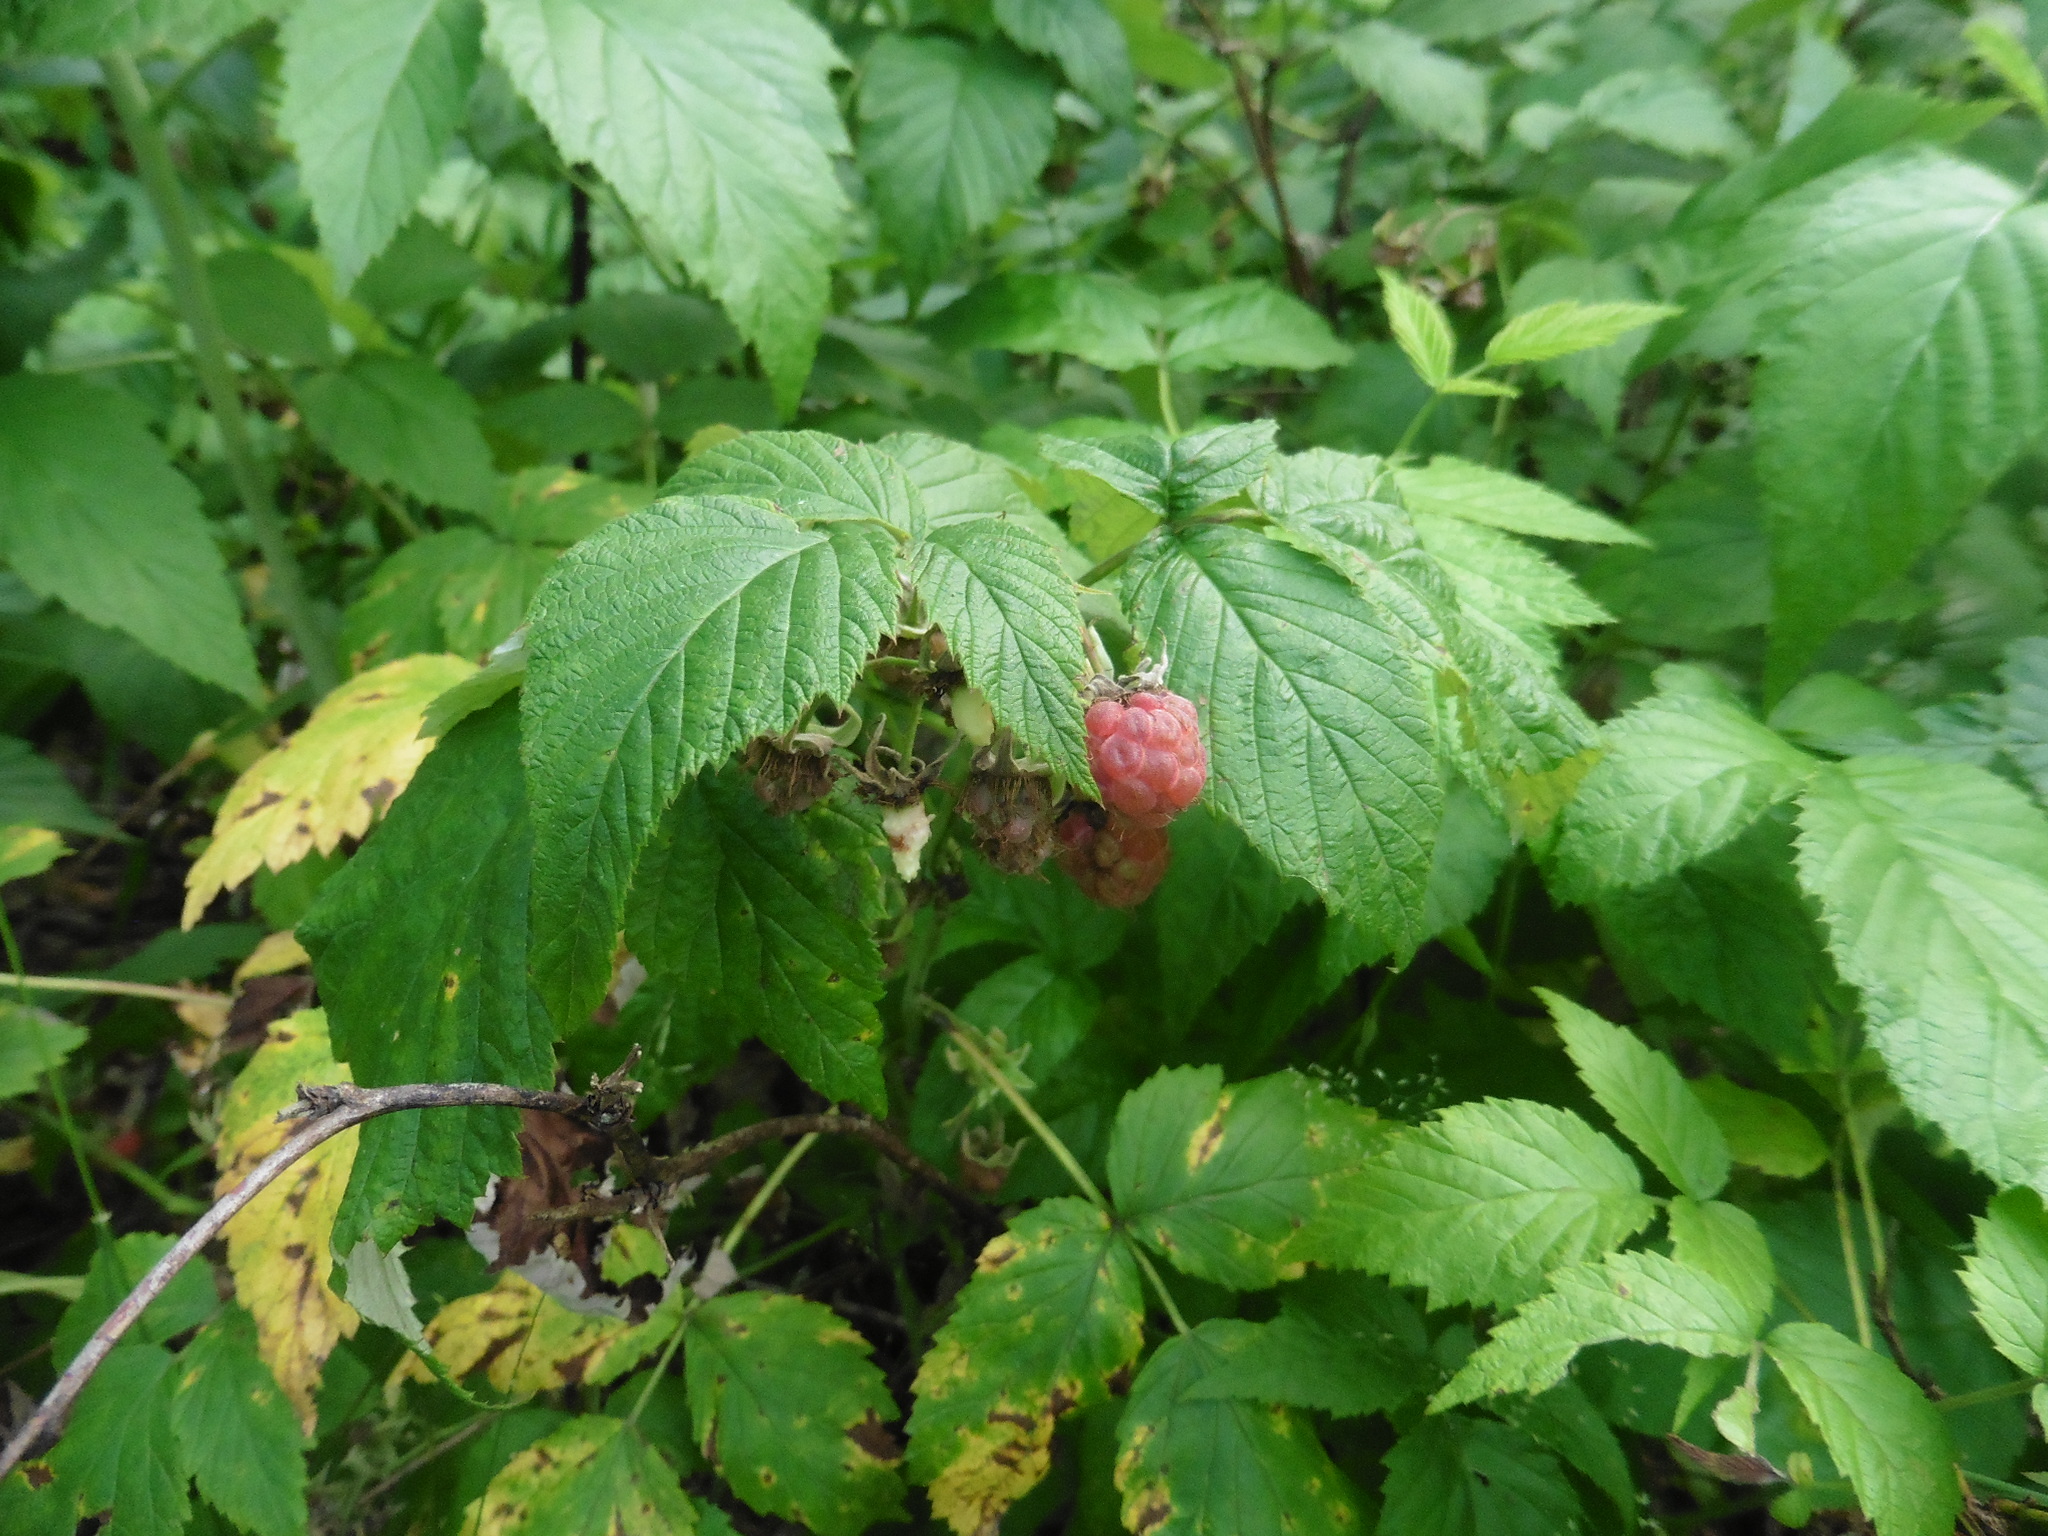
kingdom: Plantae
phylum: Tracheophyta
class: Magnoliopsida
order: Rosales
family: Rosaceae
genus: Rubus
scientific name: Rubus idaeus
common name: Raspberry
